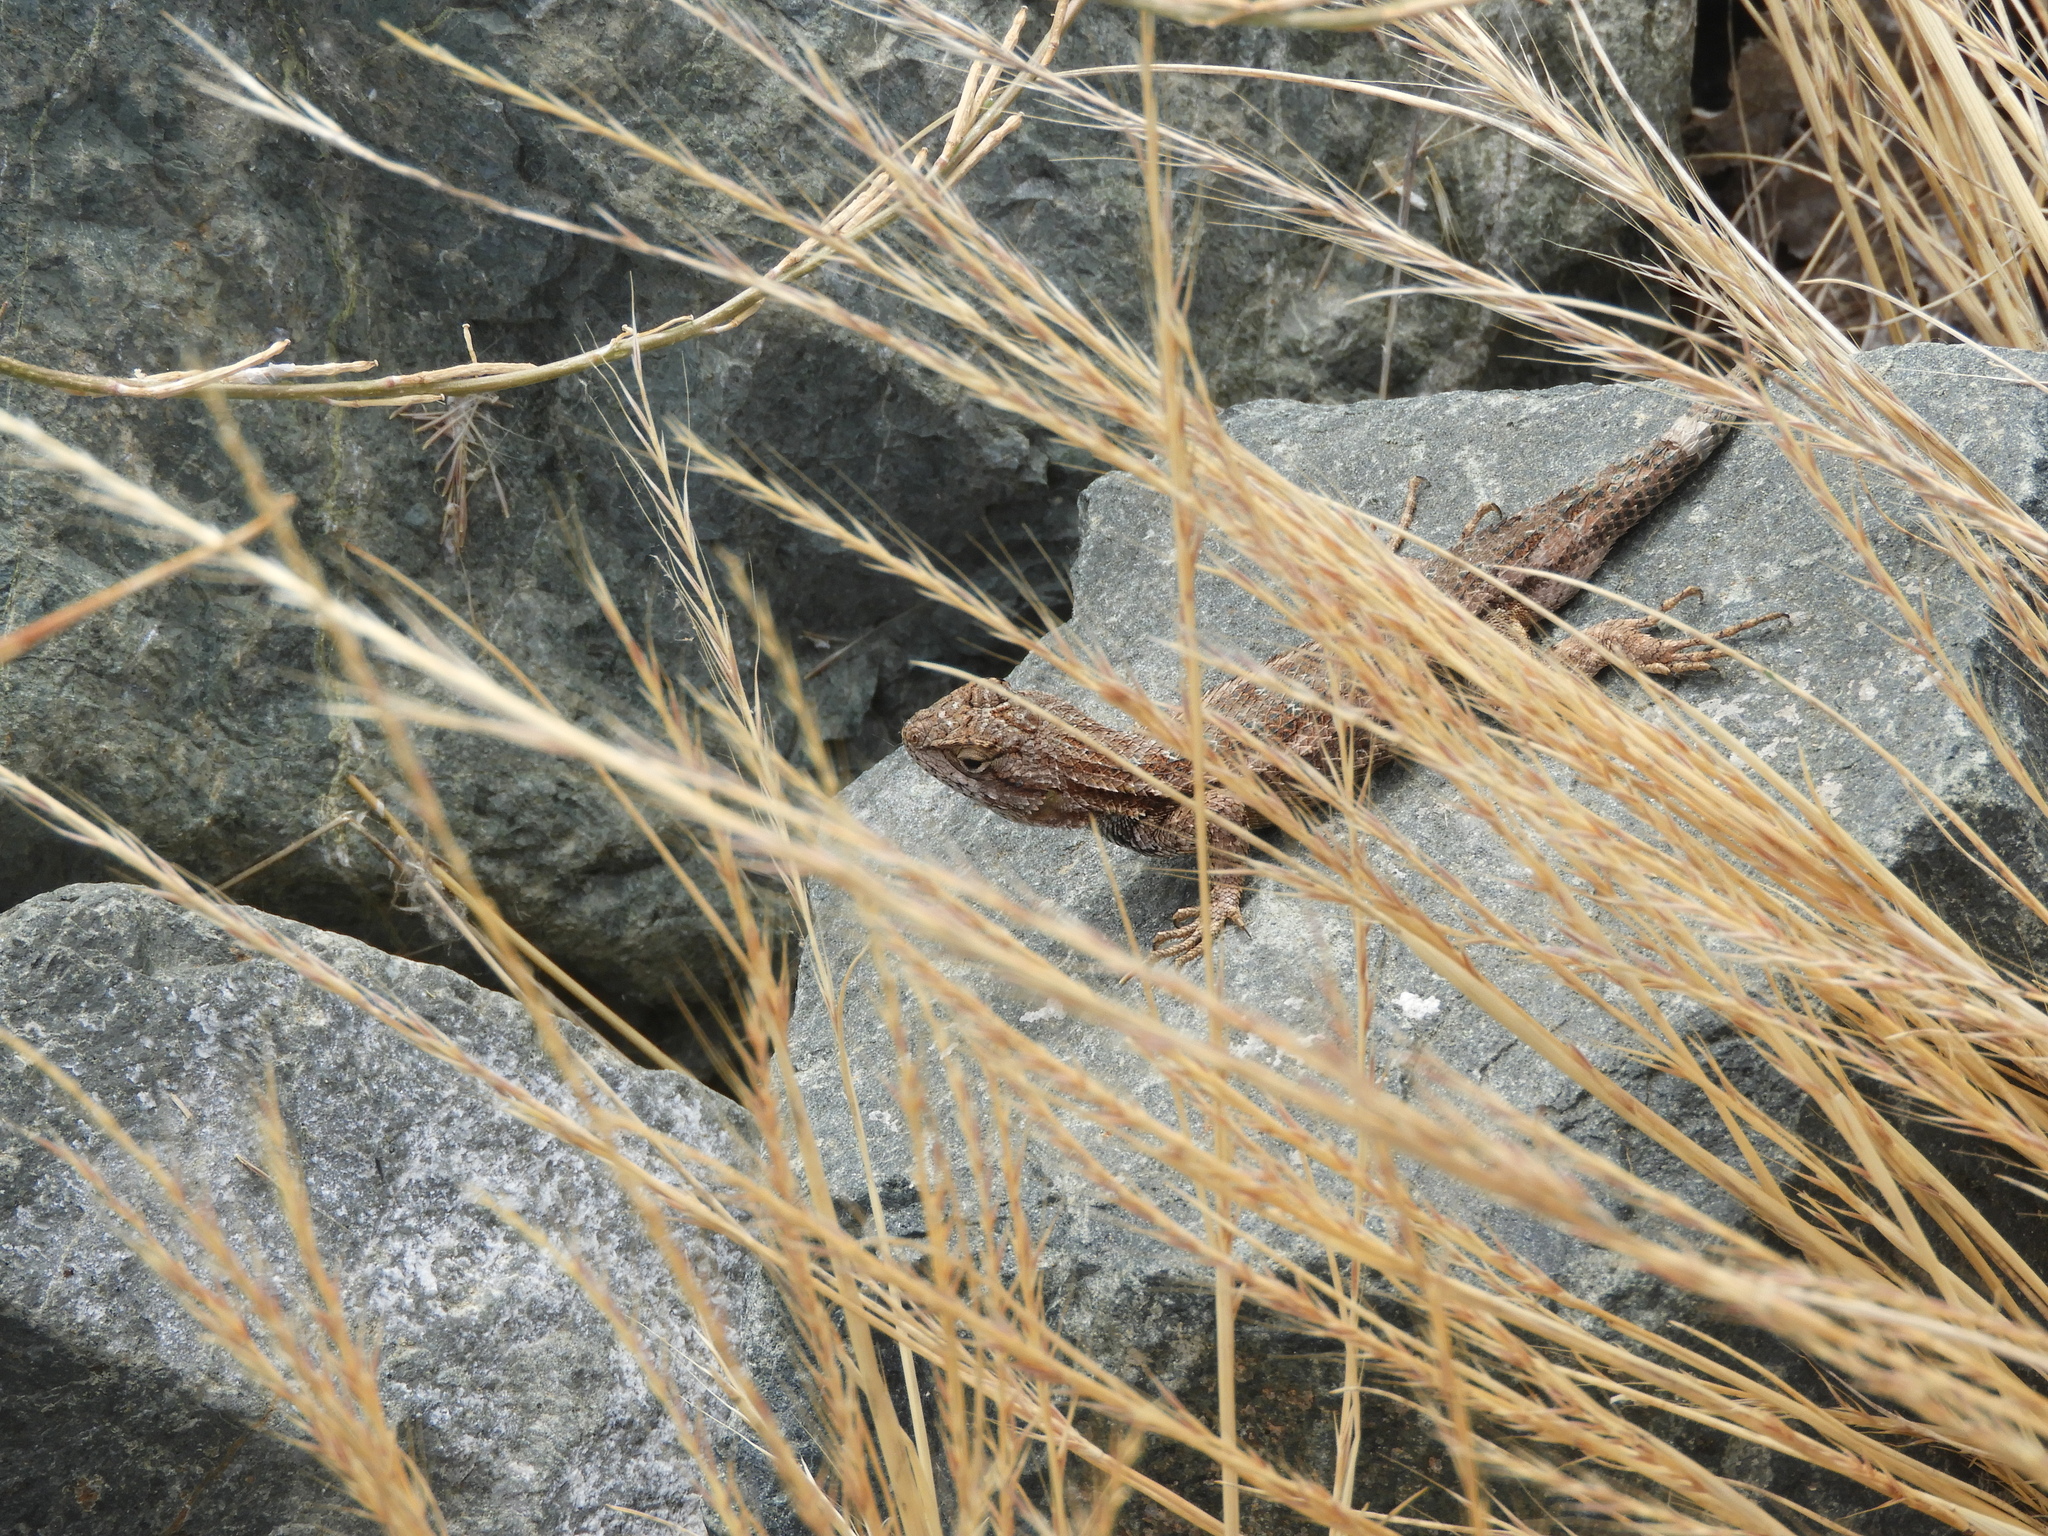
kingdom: Animalia
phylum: Chordata
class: Squamata
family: Phrynosomatidae
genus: Sceloporus
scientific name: Sceloporus occidentalis
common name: Western fence lizard
